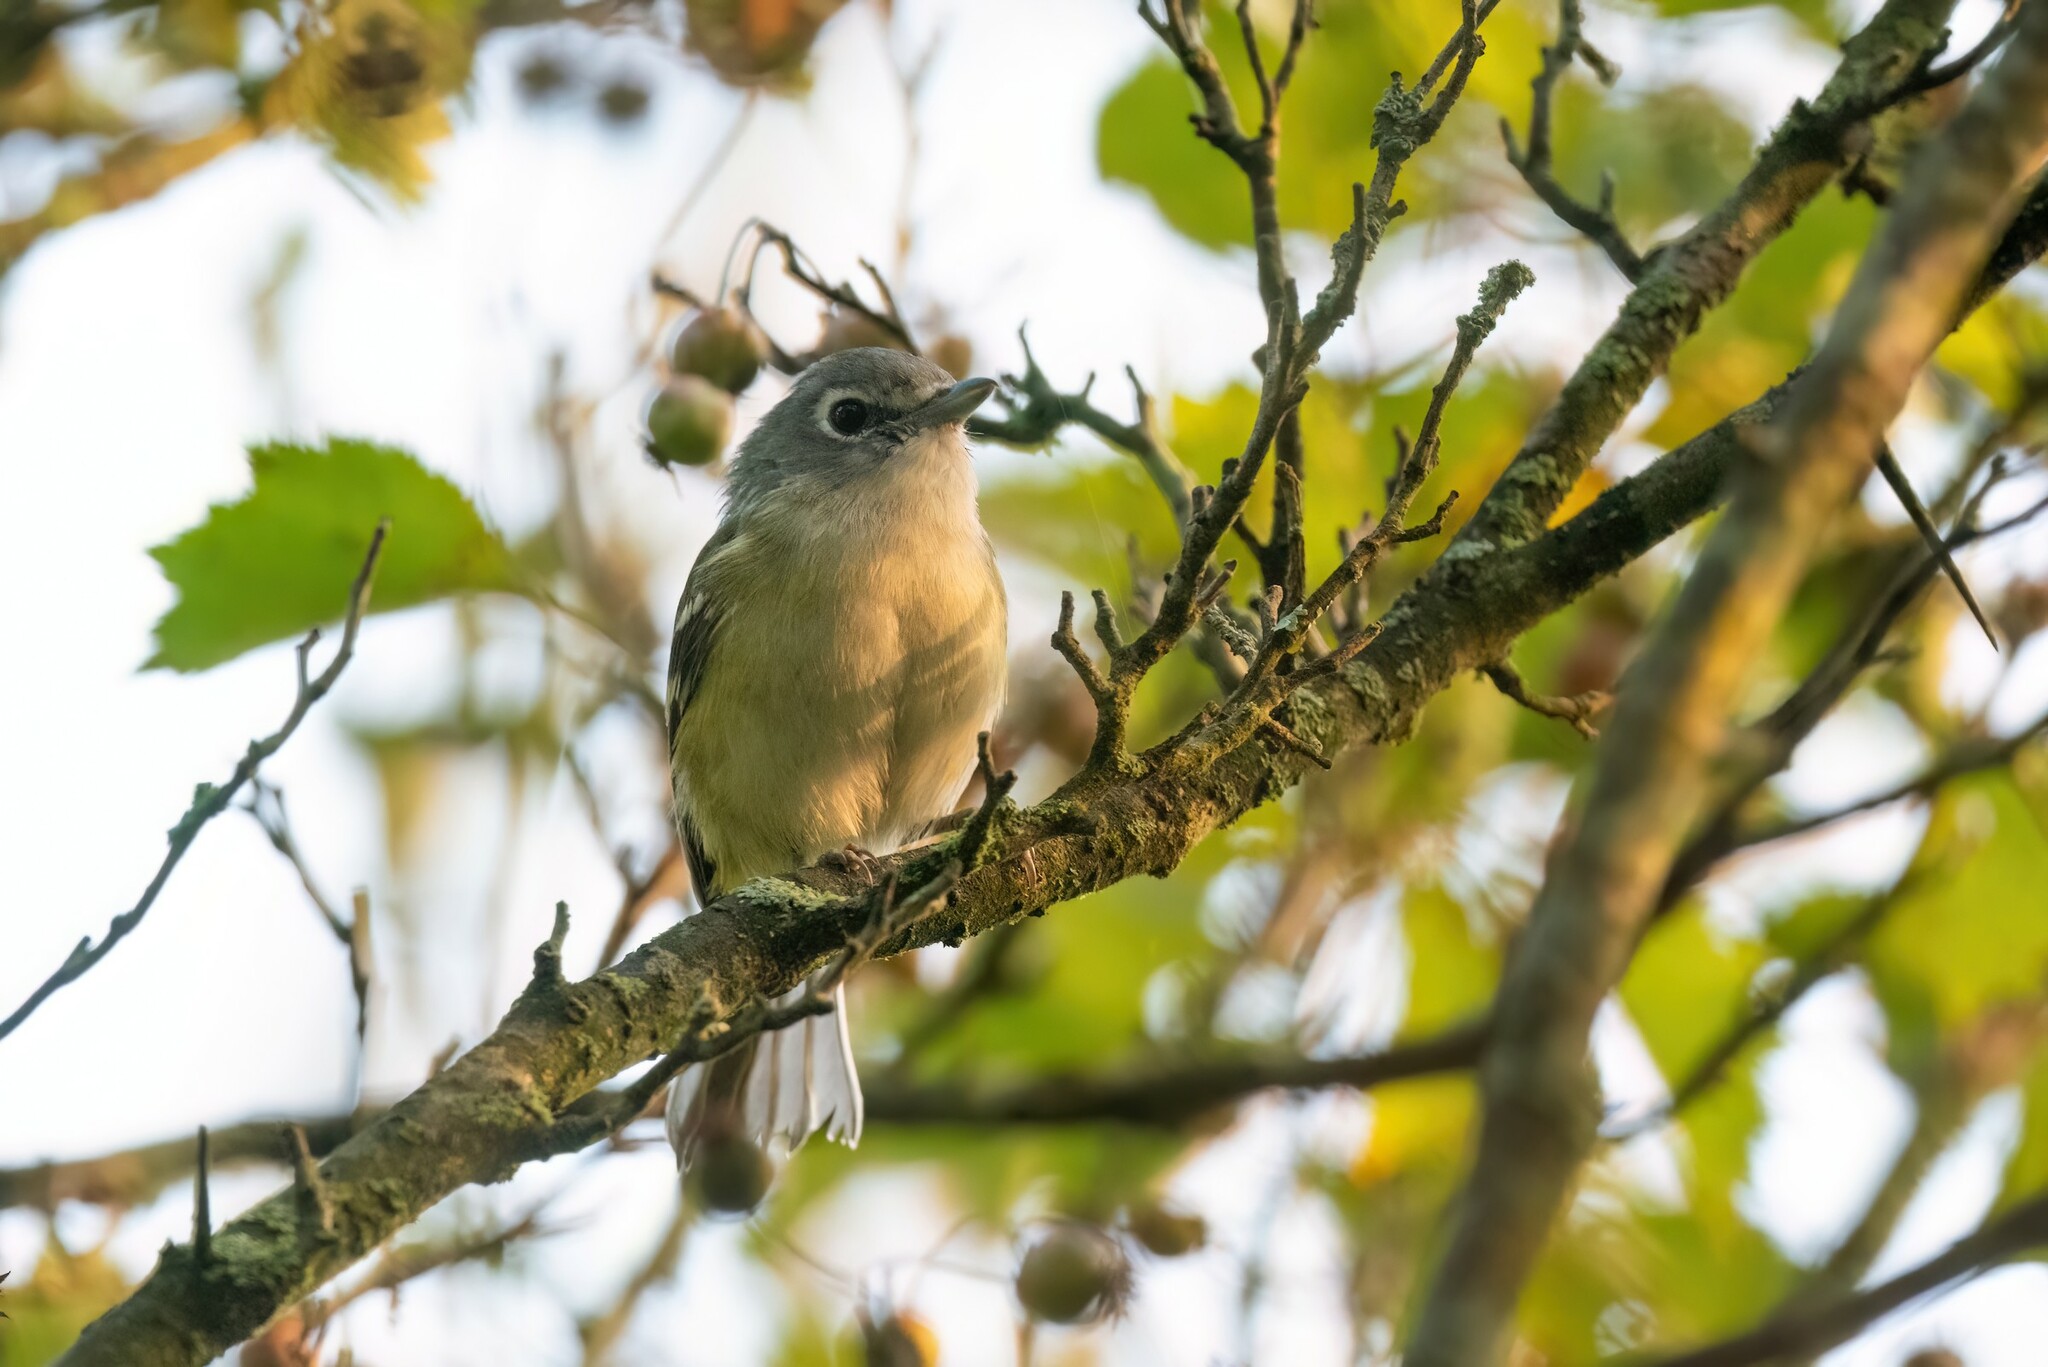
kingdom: Animalia
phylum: Chordata
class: Aves
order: Passeriformes
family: Vireonidae
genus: Vireo
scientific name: Vireo solitarius
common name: Blue-headed vireo
